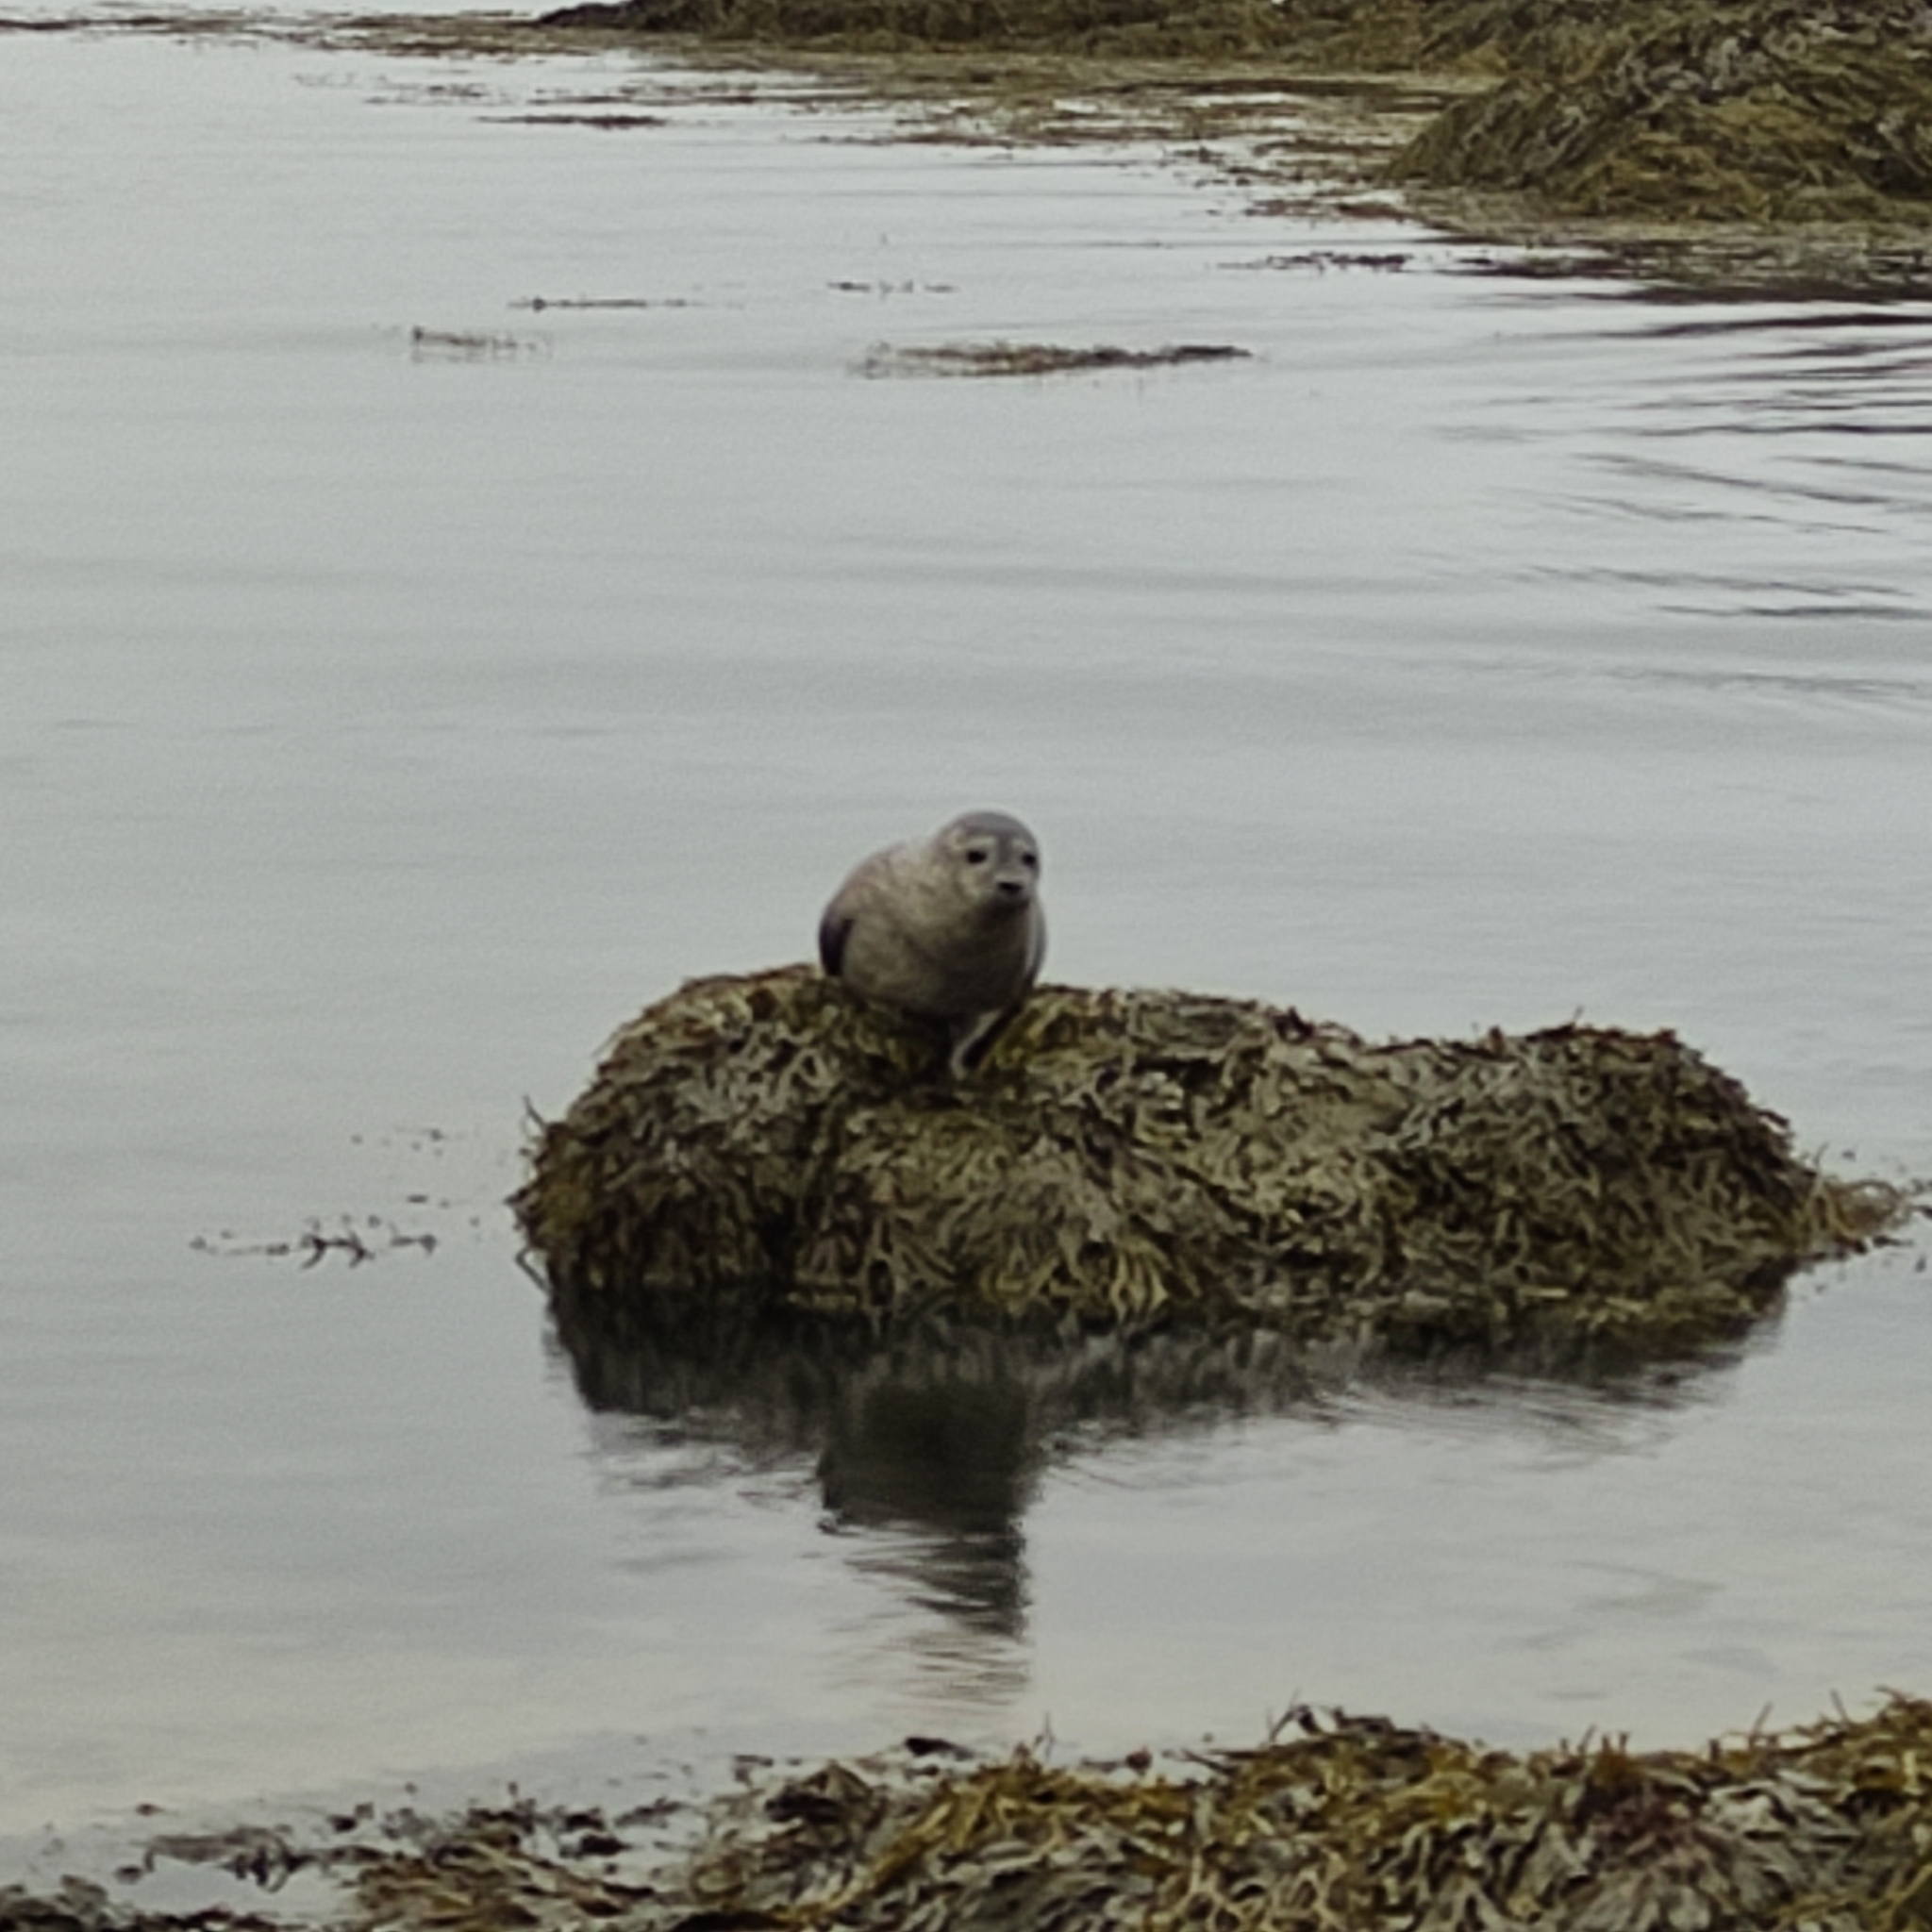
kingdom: Animalia
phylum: Chordata
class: Mammalia
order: Carnivora
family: Phocidae
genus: Phoca
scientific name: Phoca vitulina
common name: Harbor seal
